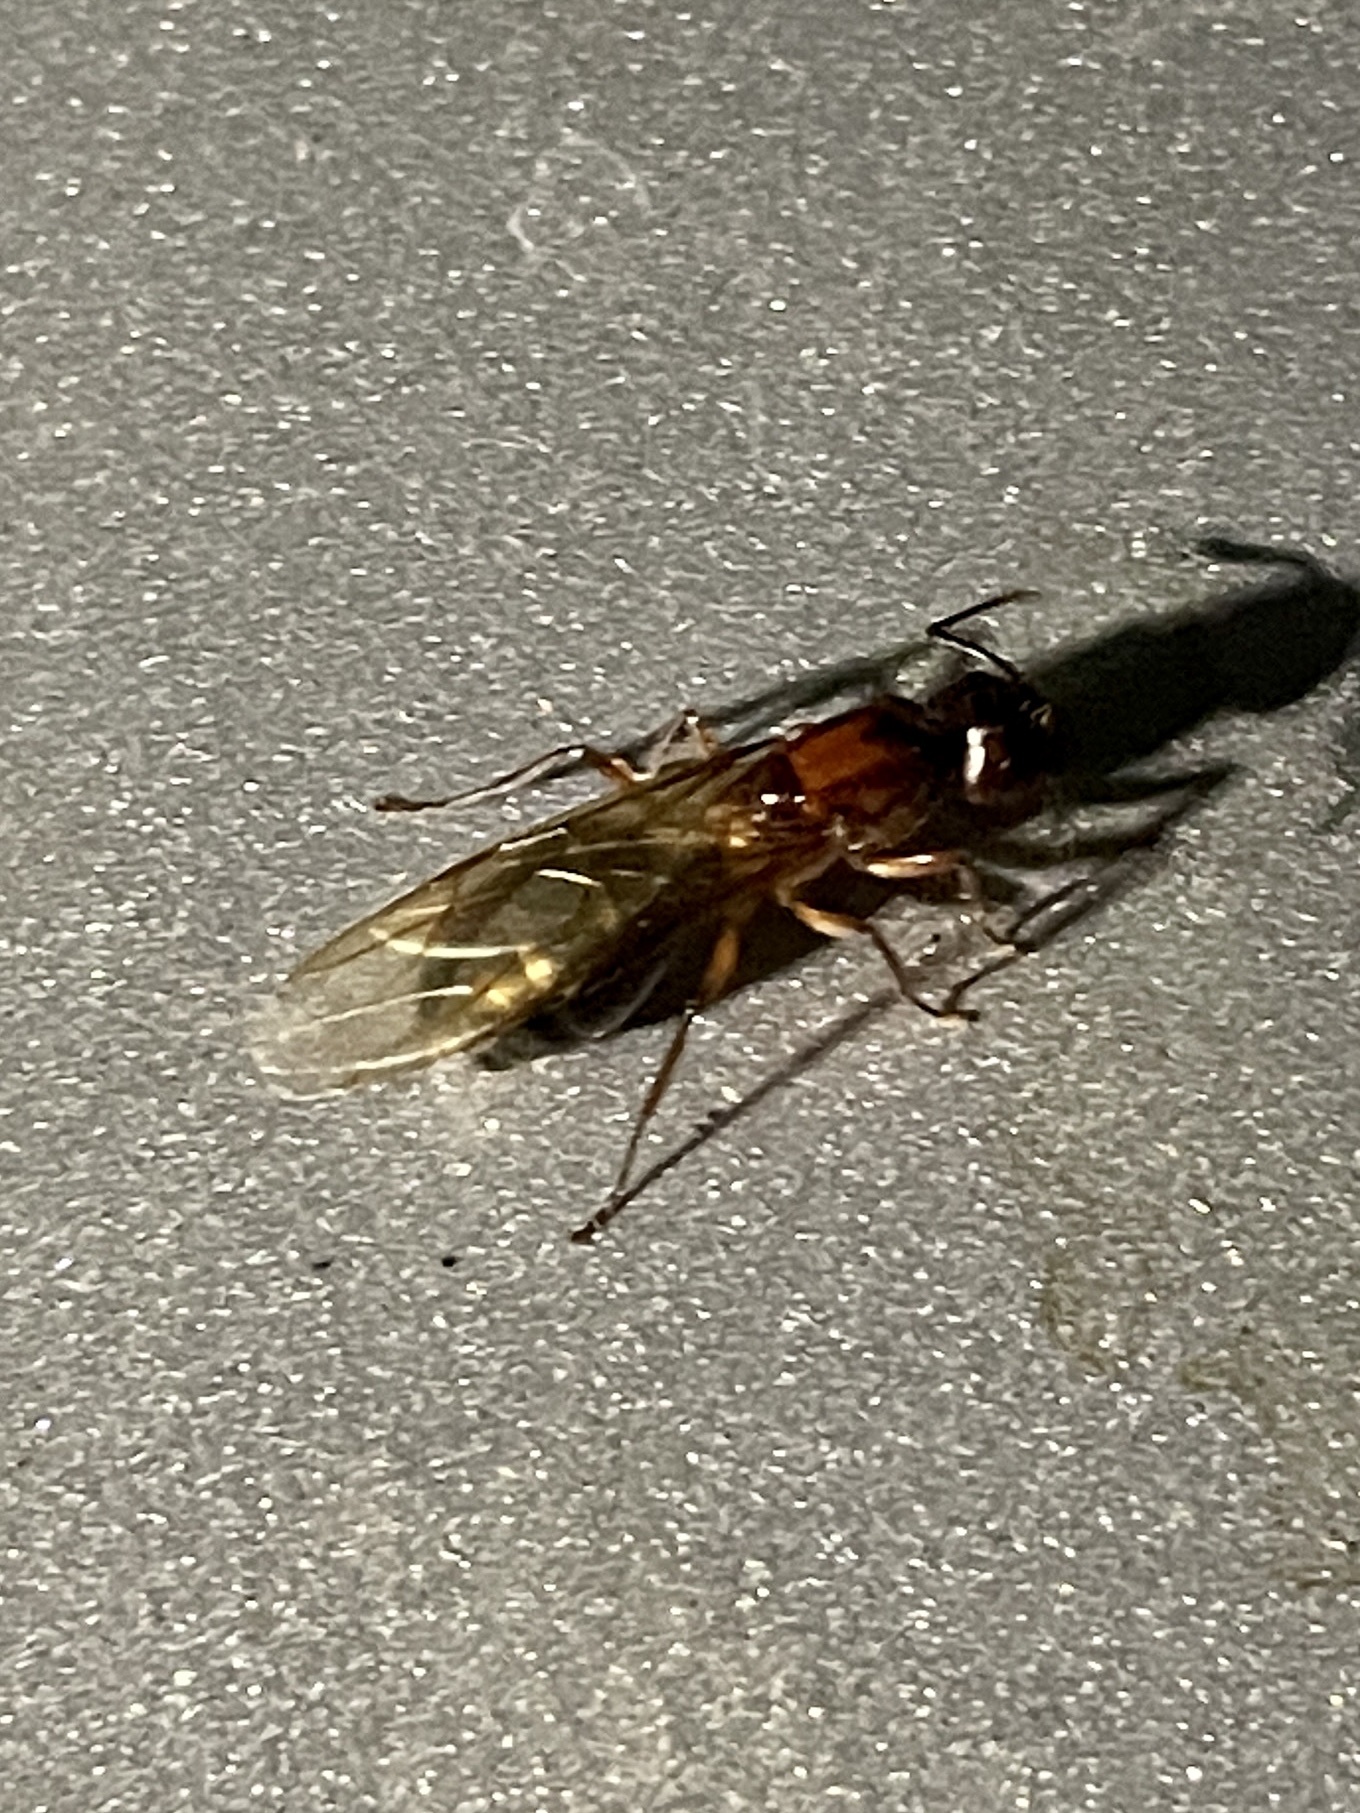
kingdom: Animalia
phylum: Arthropoda
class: Insecta
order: Hymenoptera
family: Formicidae
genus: Camponotus
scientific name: Camponotus atriceps
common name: Florida carpenter ant
